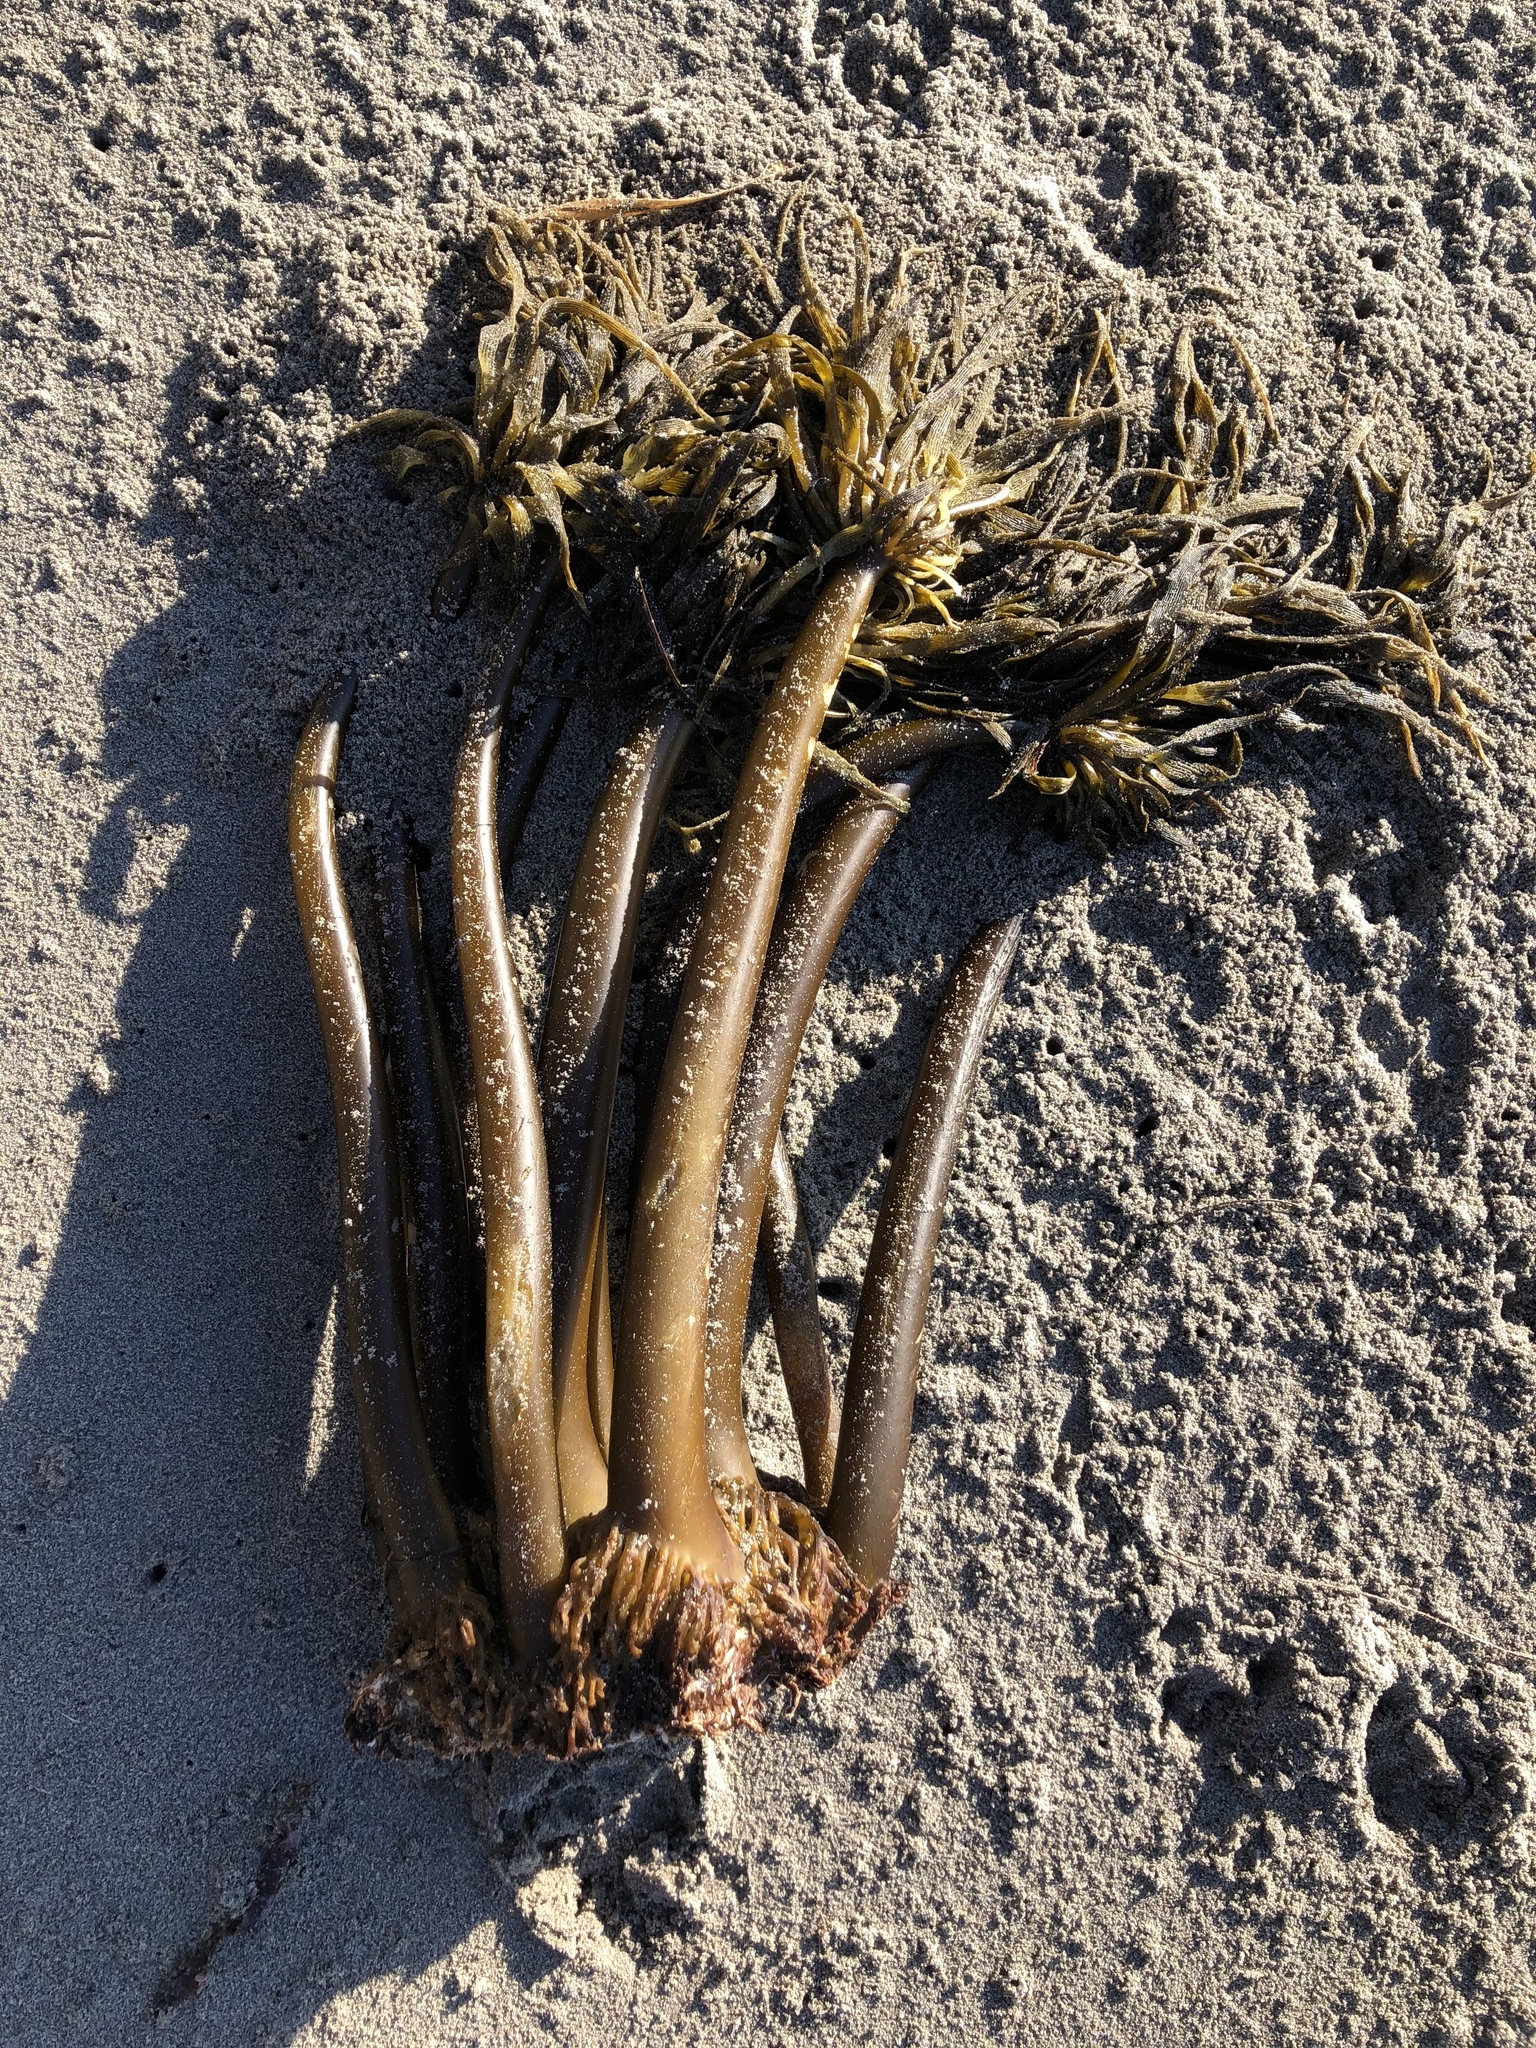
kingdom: Chromista
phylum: Ochrophyta
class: Phaeophyceae
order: Laminariales
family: Laminariaceae
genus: Postelsia
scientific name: Postelsia palmiformis
